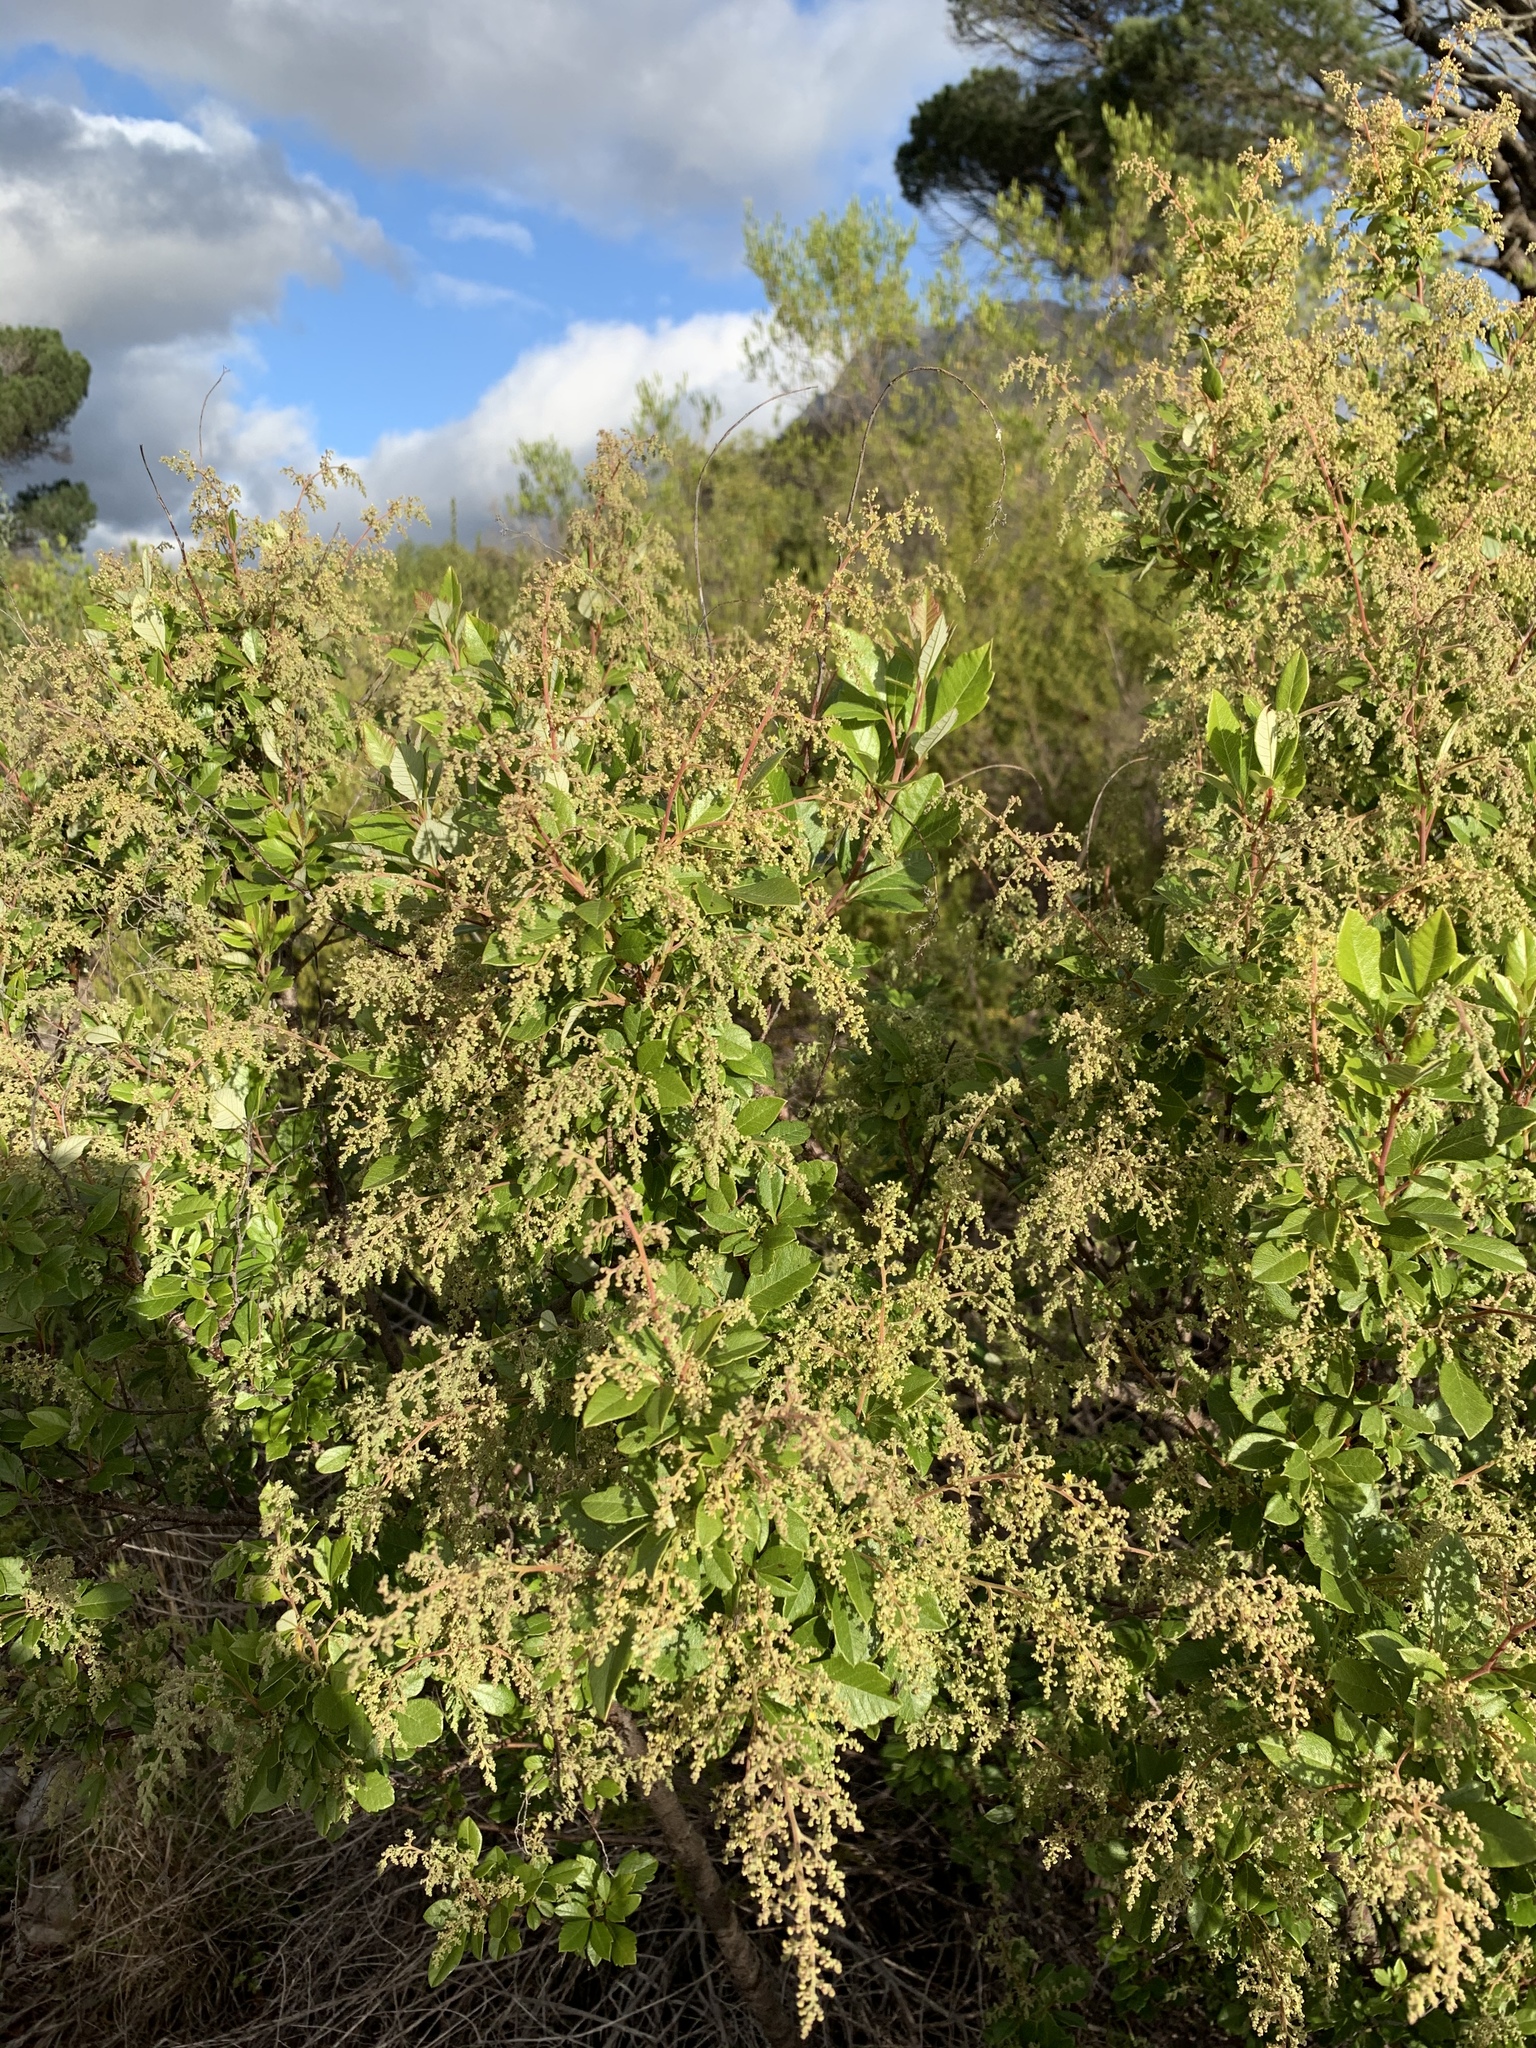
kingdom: Plantae
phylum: Tracheophyta
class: Magnoliopsida
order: Sapindales
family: Anacardiaceae
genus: Searsia
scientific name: Searsia tomentosa
